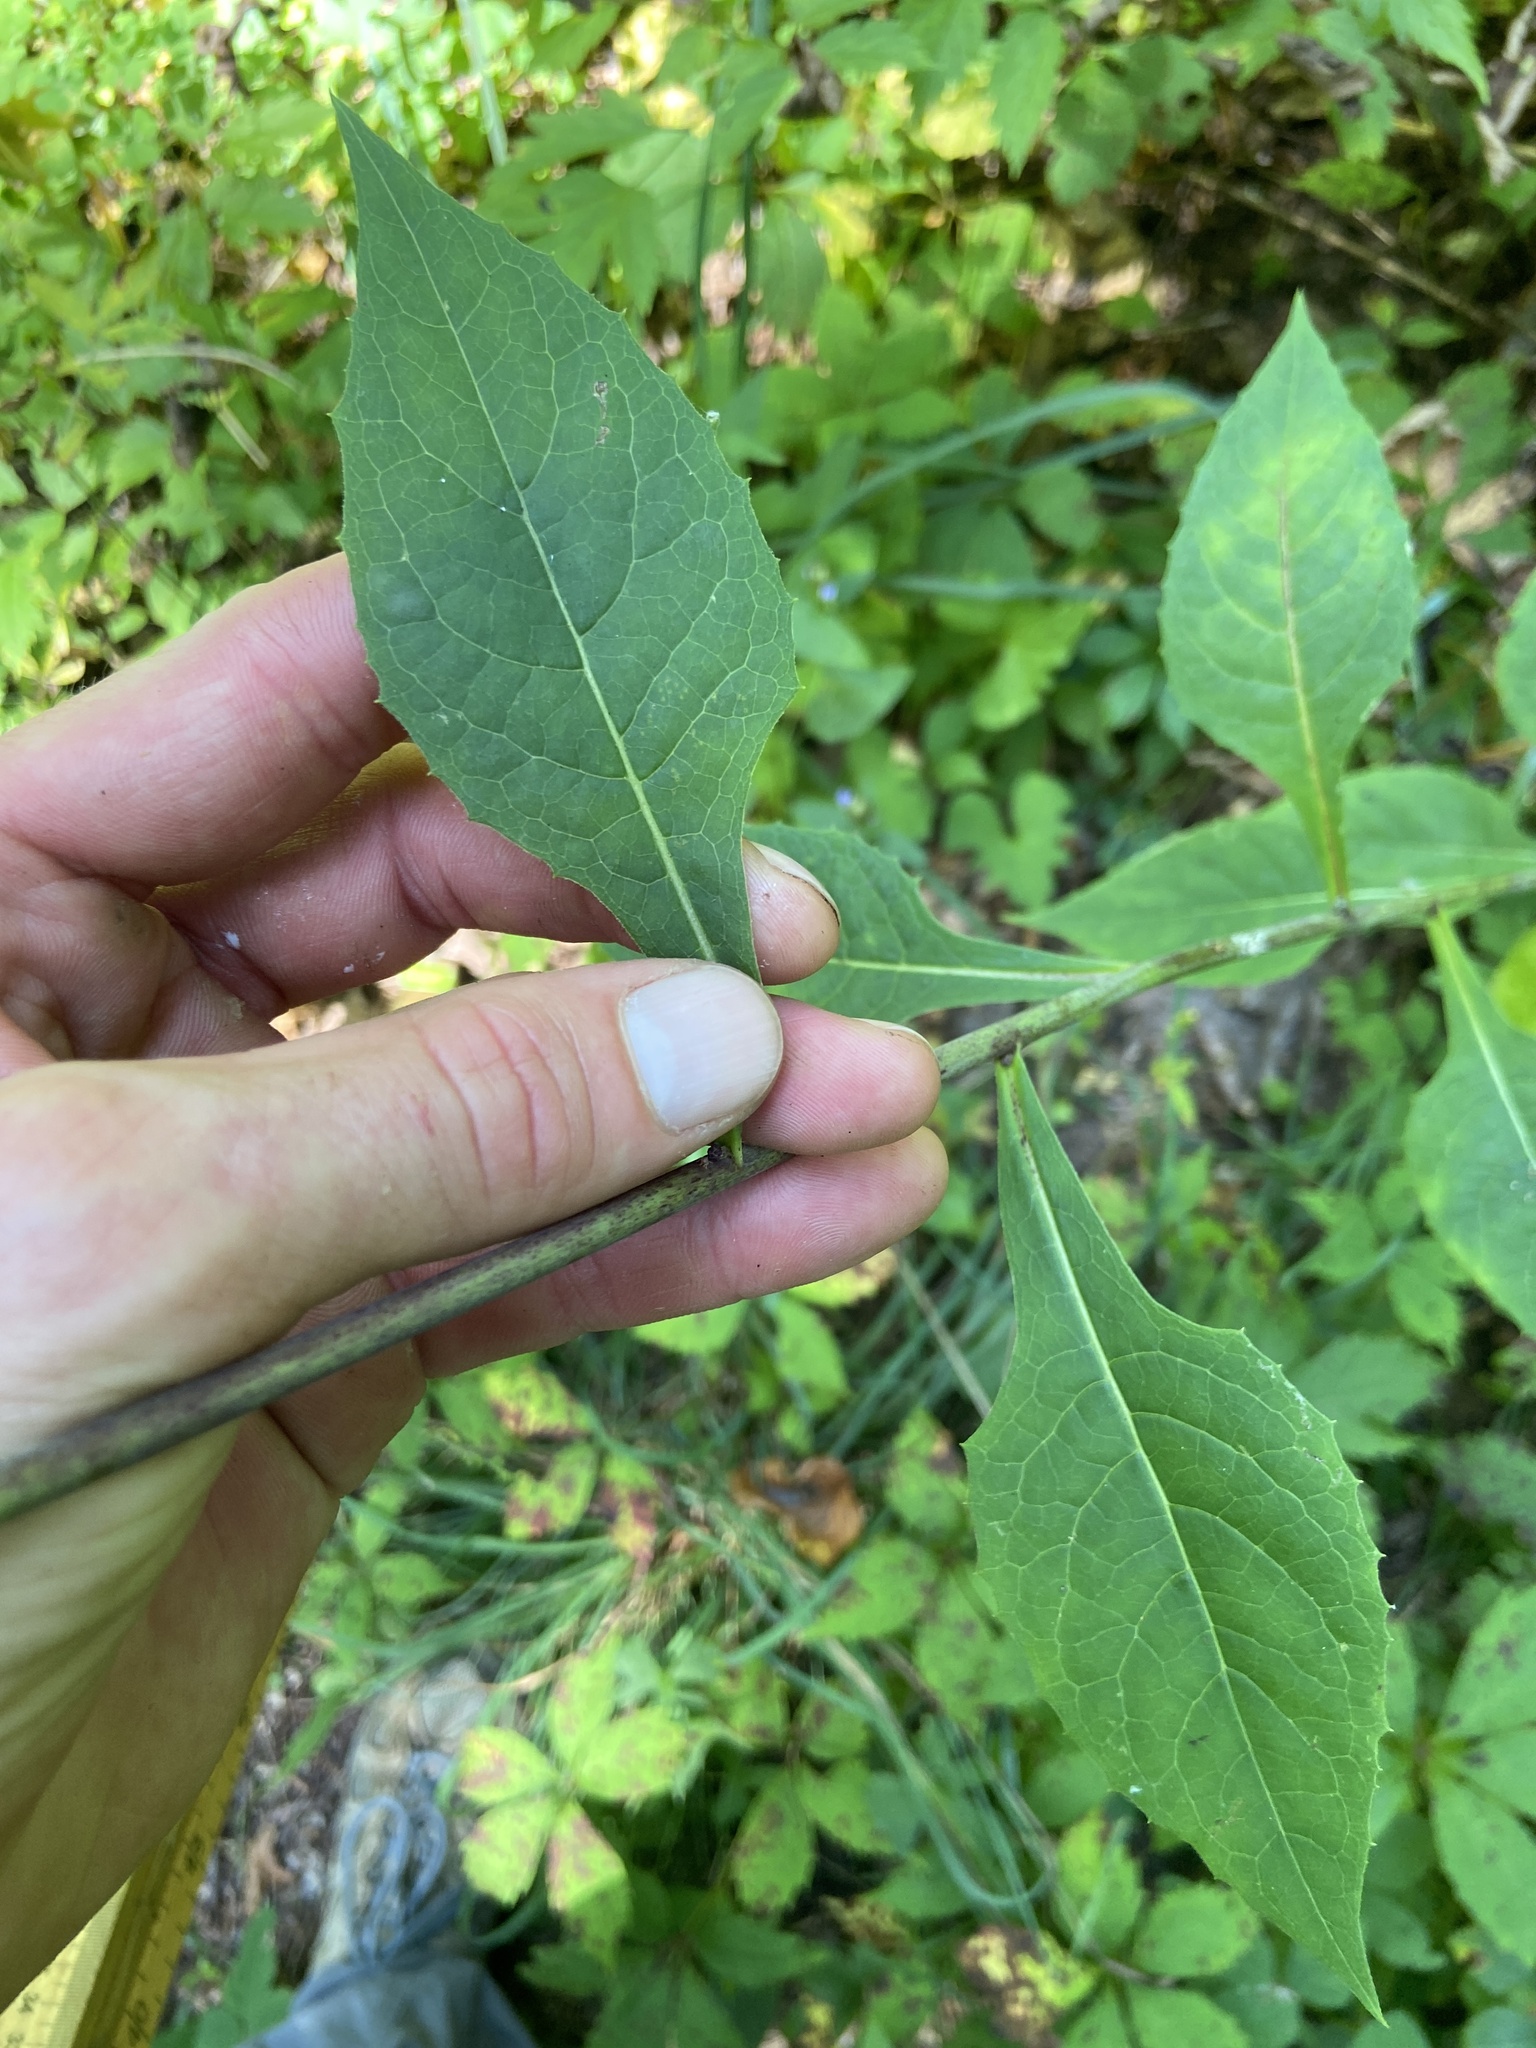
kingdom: Plantae
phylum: Tracheophyta
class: Magnoliopsida
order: Asterales
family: Asteraceae
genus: Lactuca
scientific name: Lactuca floridana
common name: Woodland lettuce
